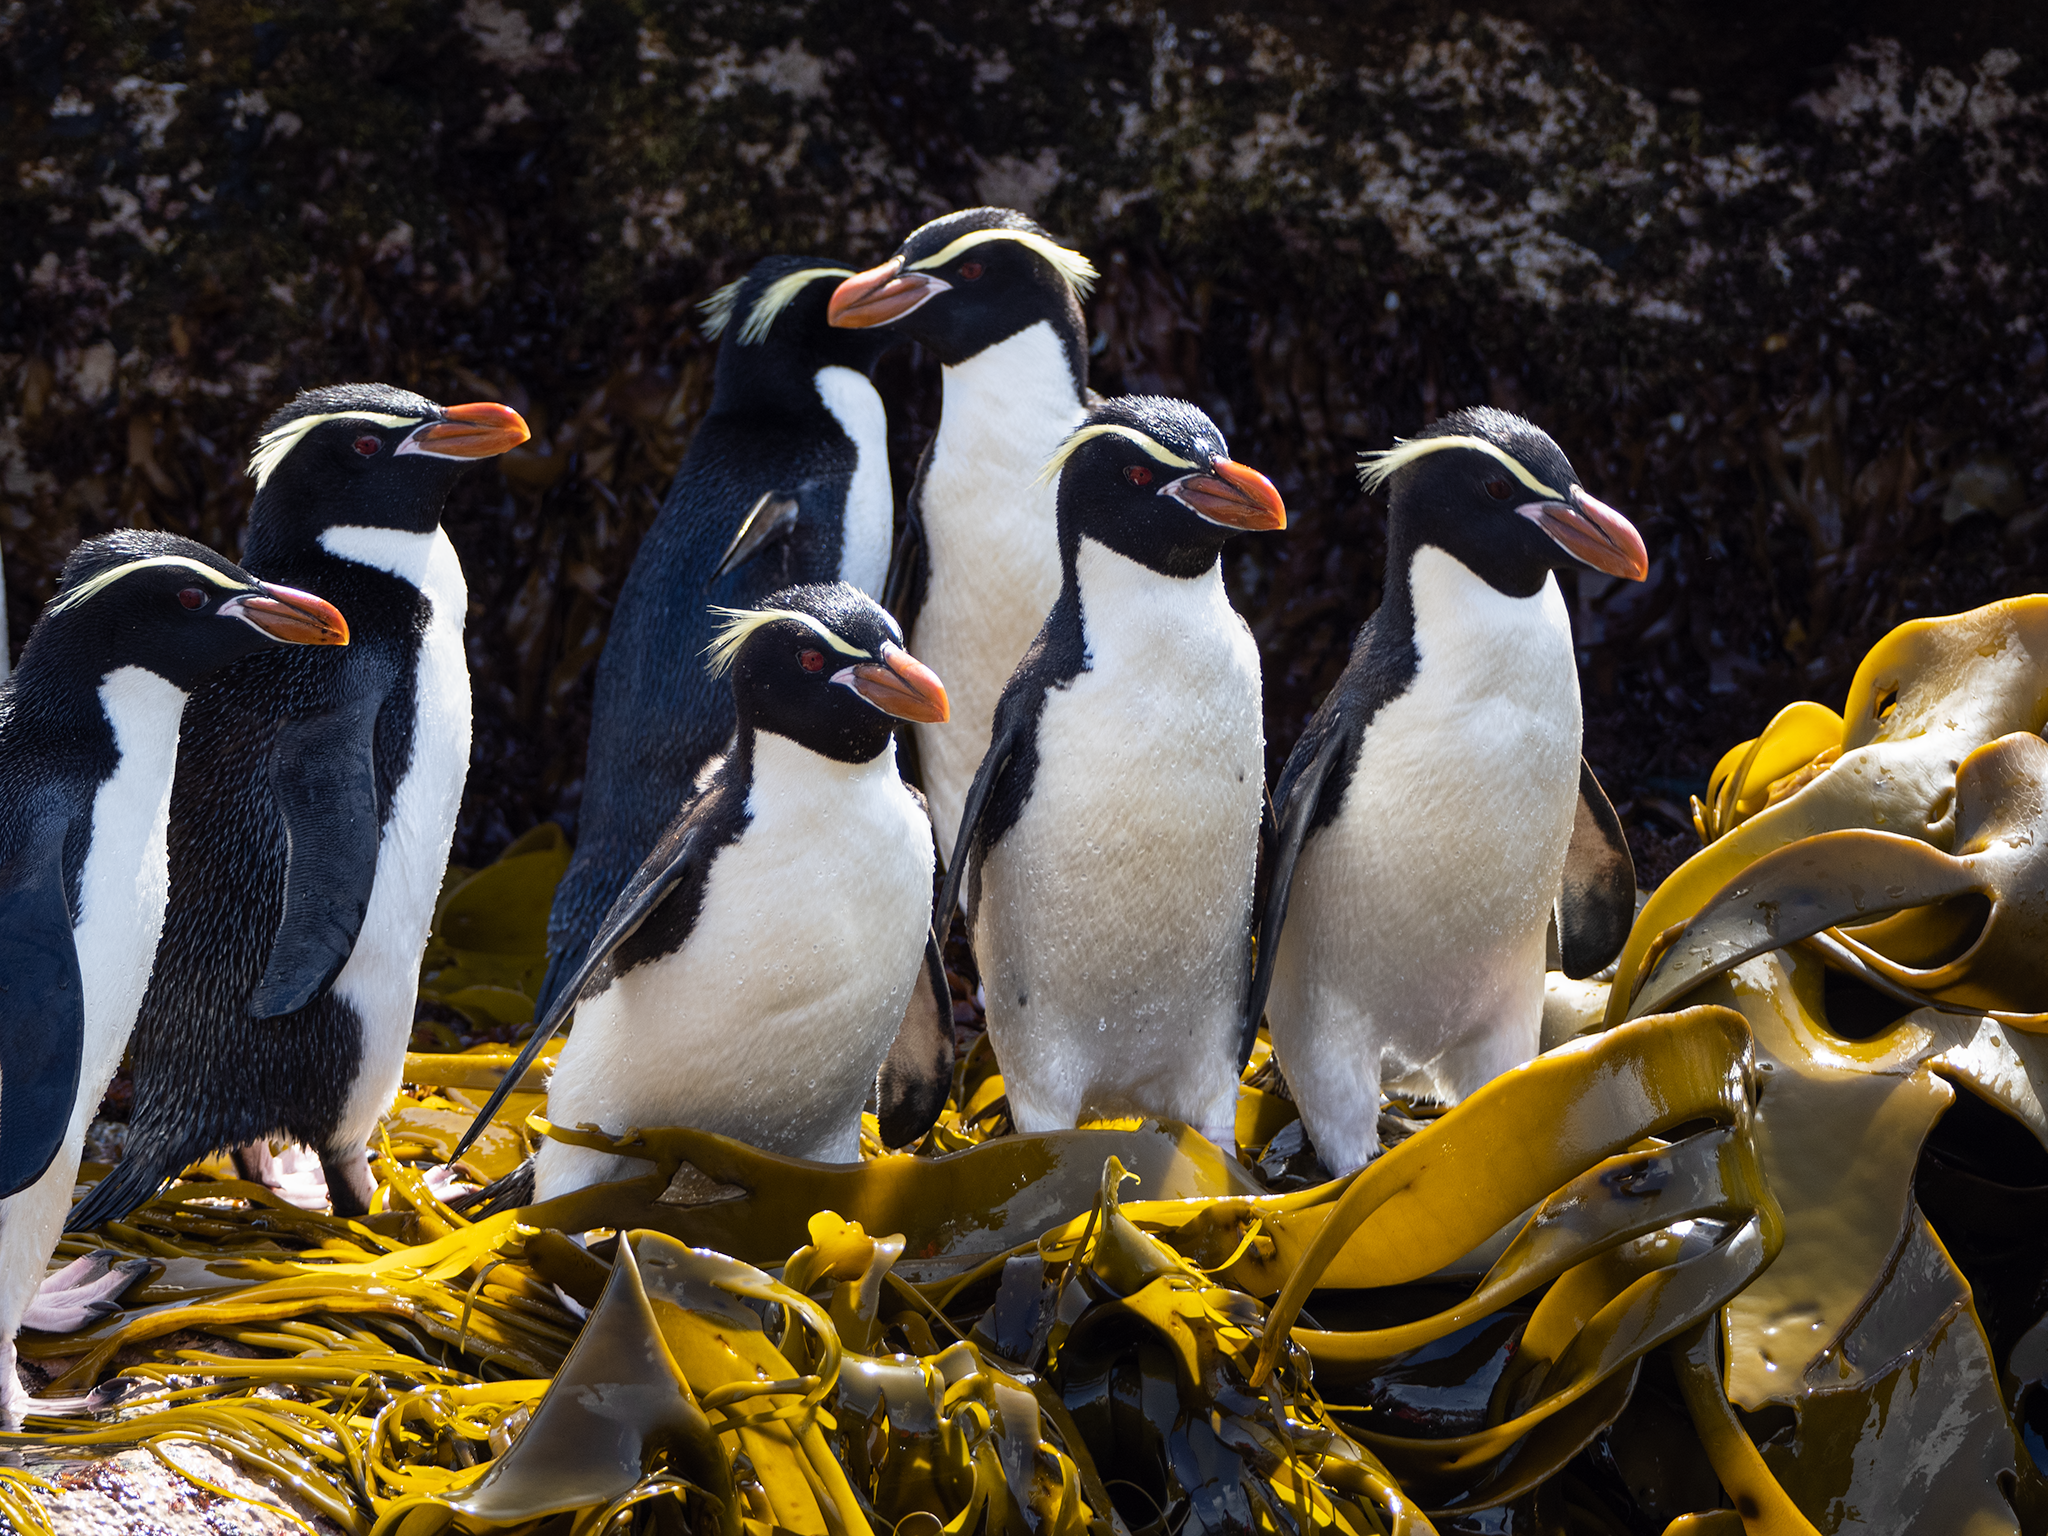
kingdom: Animalia
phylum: Chordata
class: Aves
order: Sphenisciformes
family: Spheniscidae
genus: Eudyptes
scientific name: Eudyptes robustus
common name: Snares penguin
